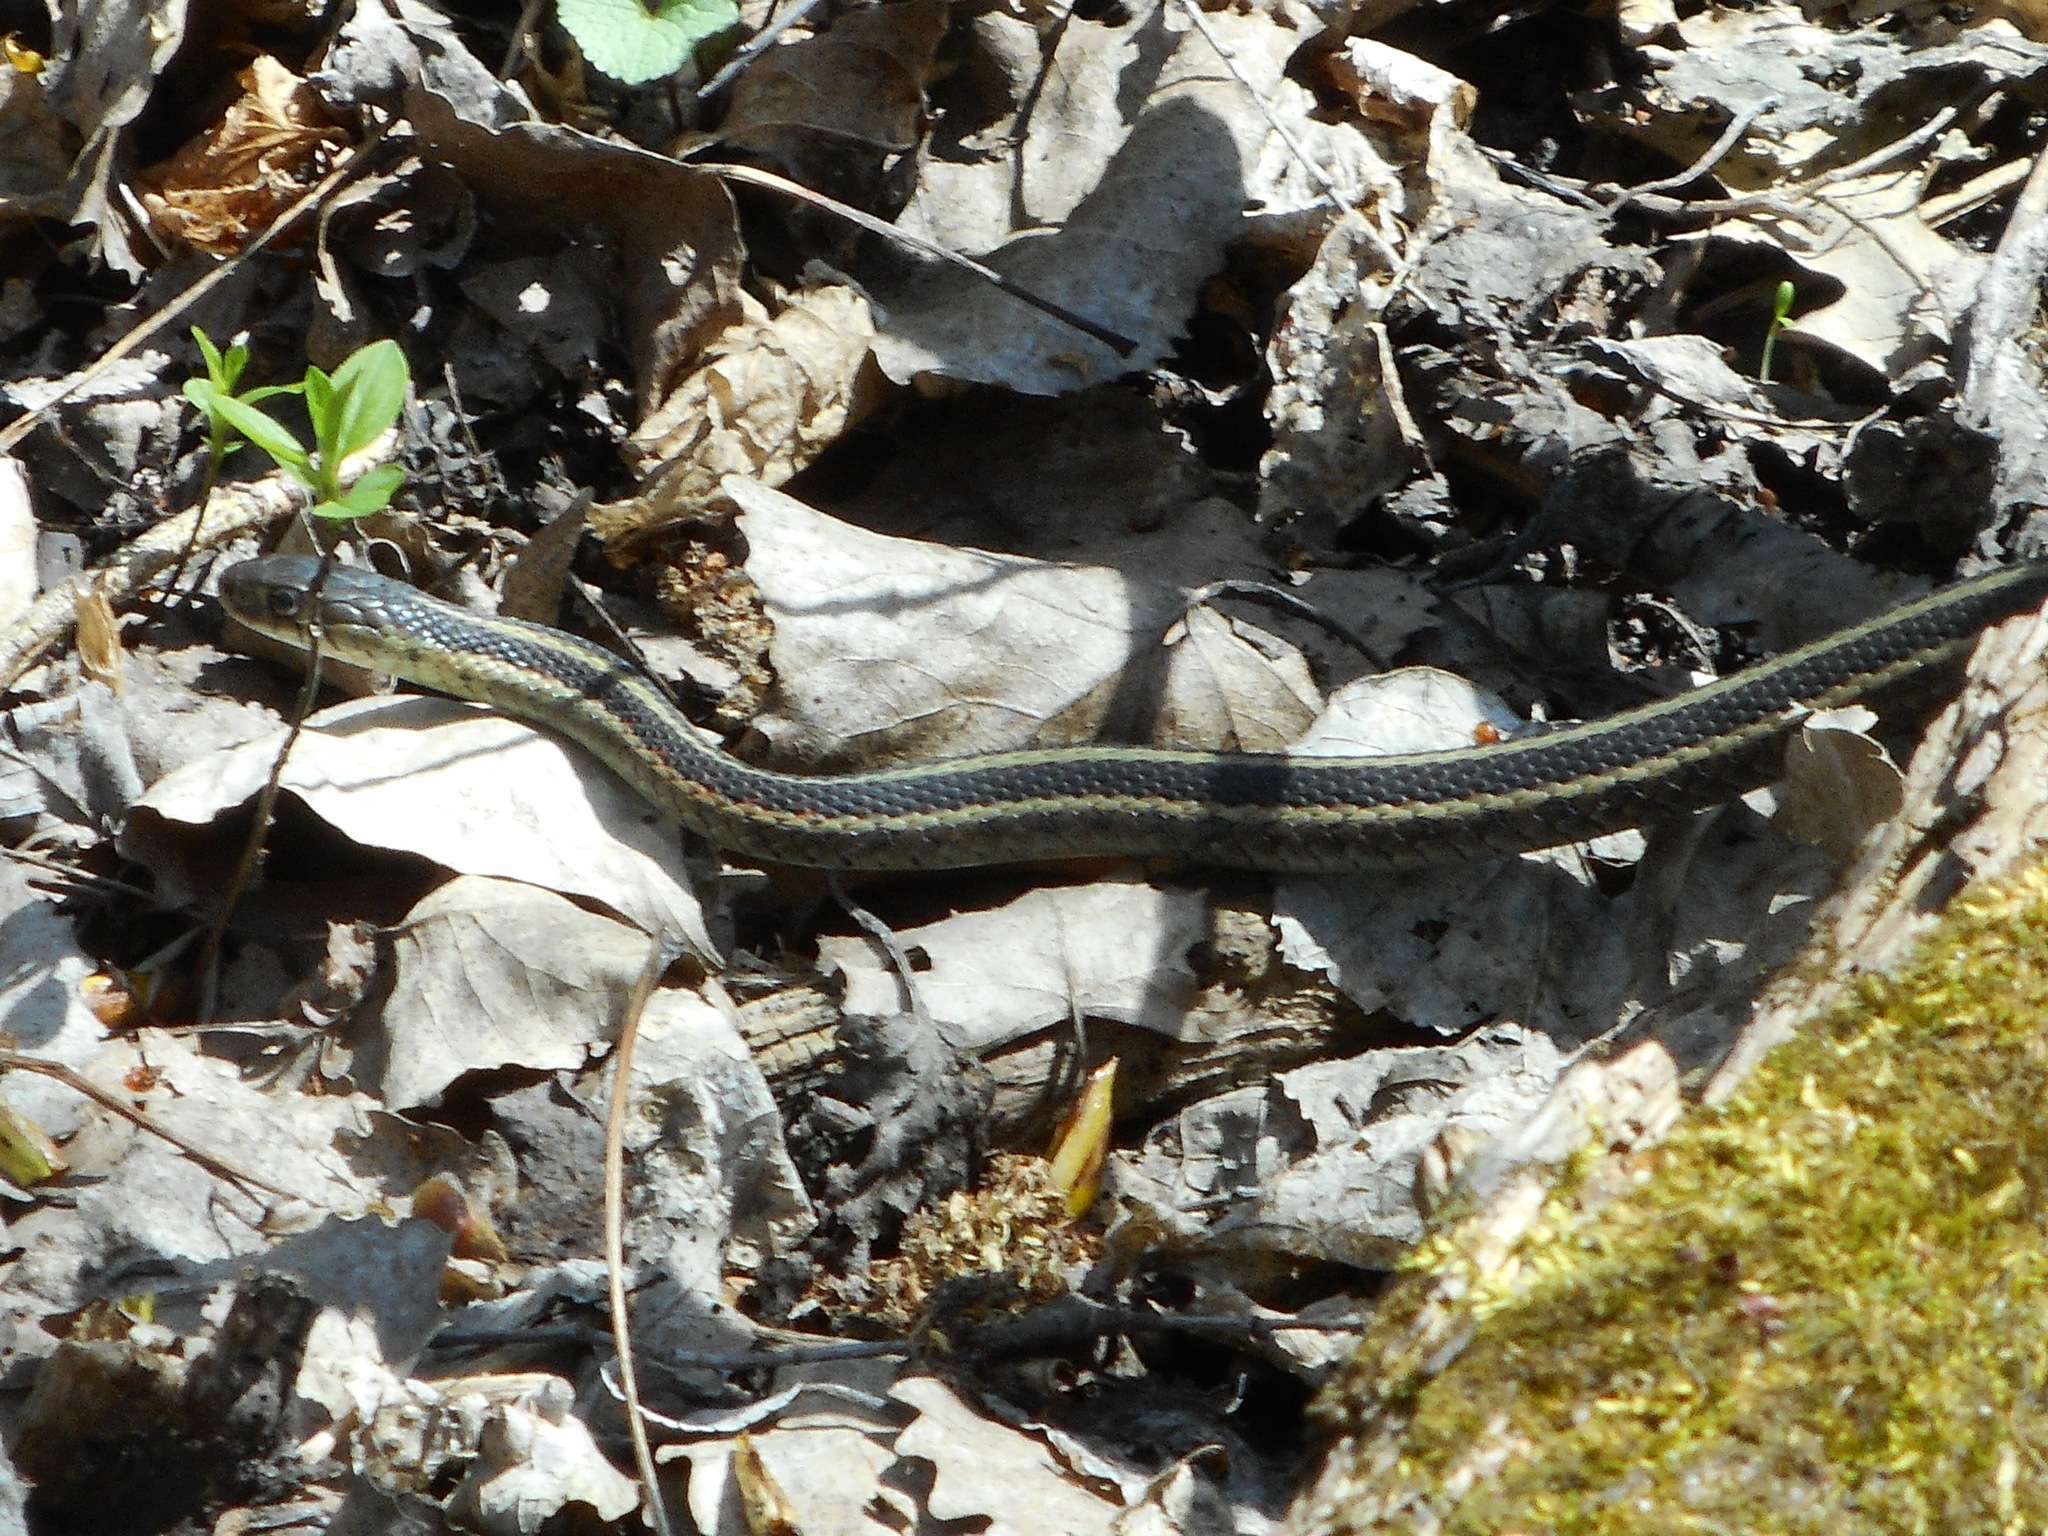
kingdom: Animalia
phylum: Chordata
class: Squamata
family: Colubridae
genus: Thamnophis
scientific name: Thamnophis sirtalis
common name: Common garter snake
